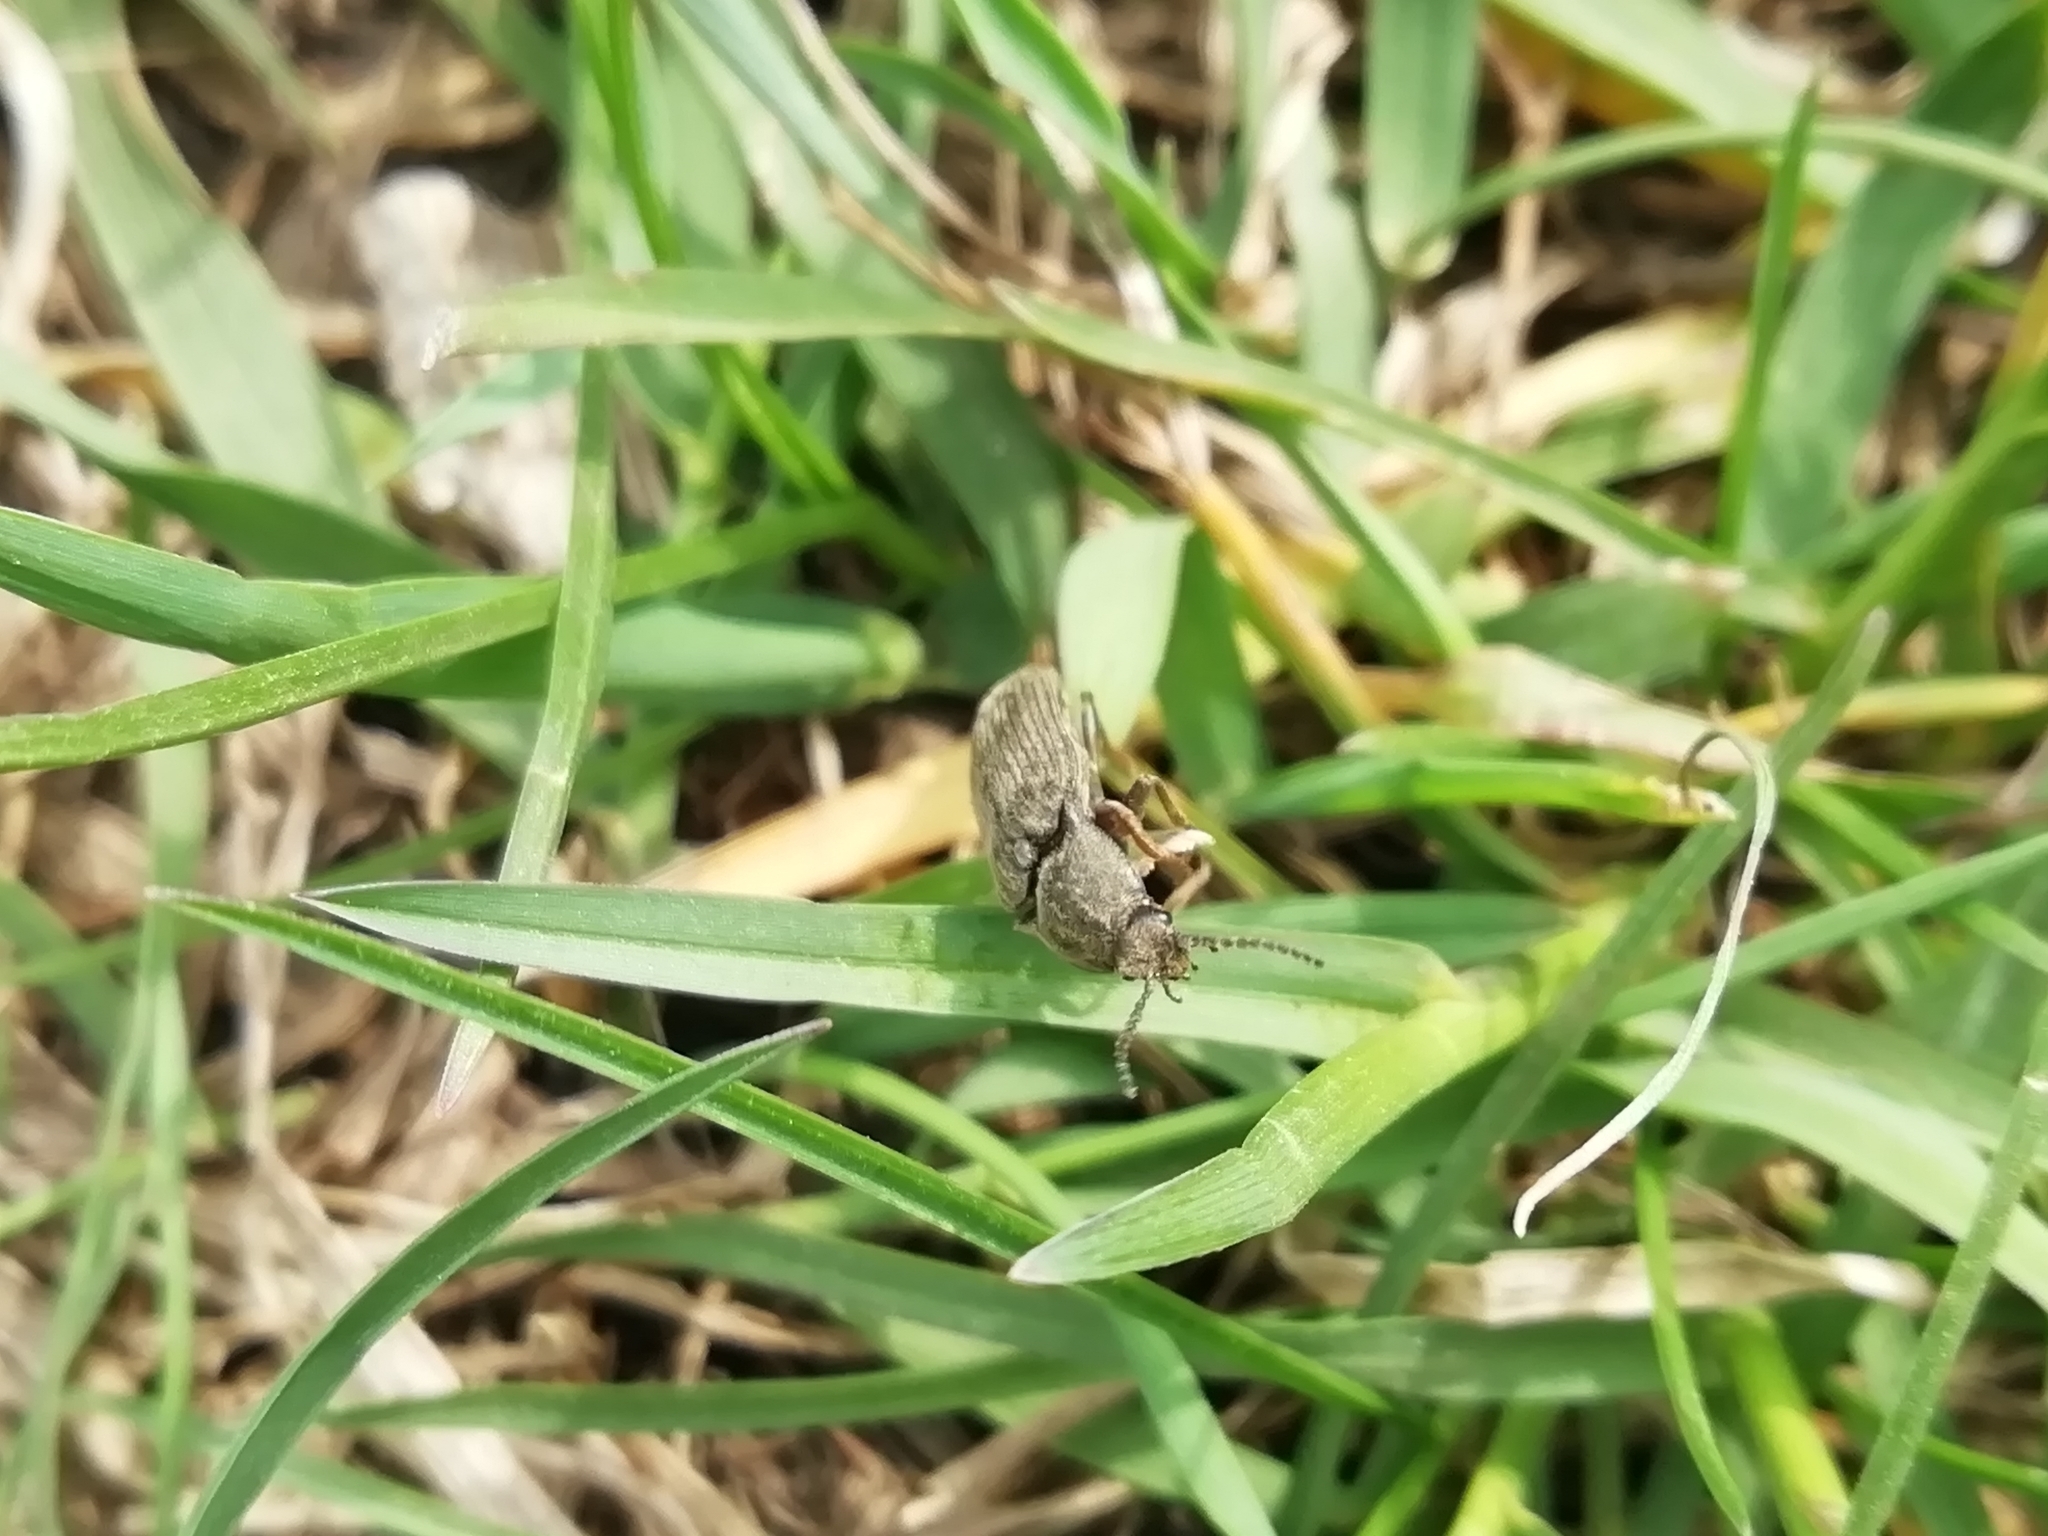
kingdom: Animalia
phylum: Arthropoda
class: Insecta
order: Coleoptera
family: Elateridae
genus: Selatosomus
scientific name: Selatosomus latus
